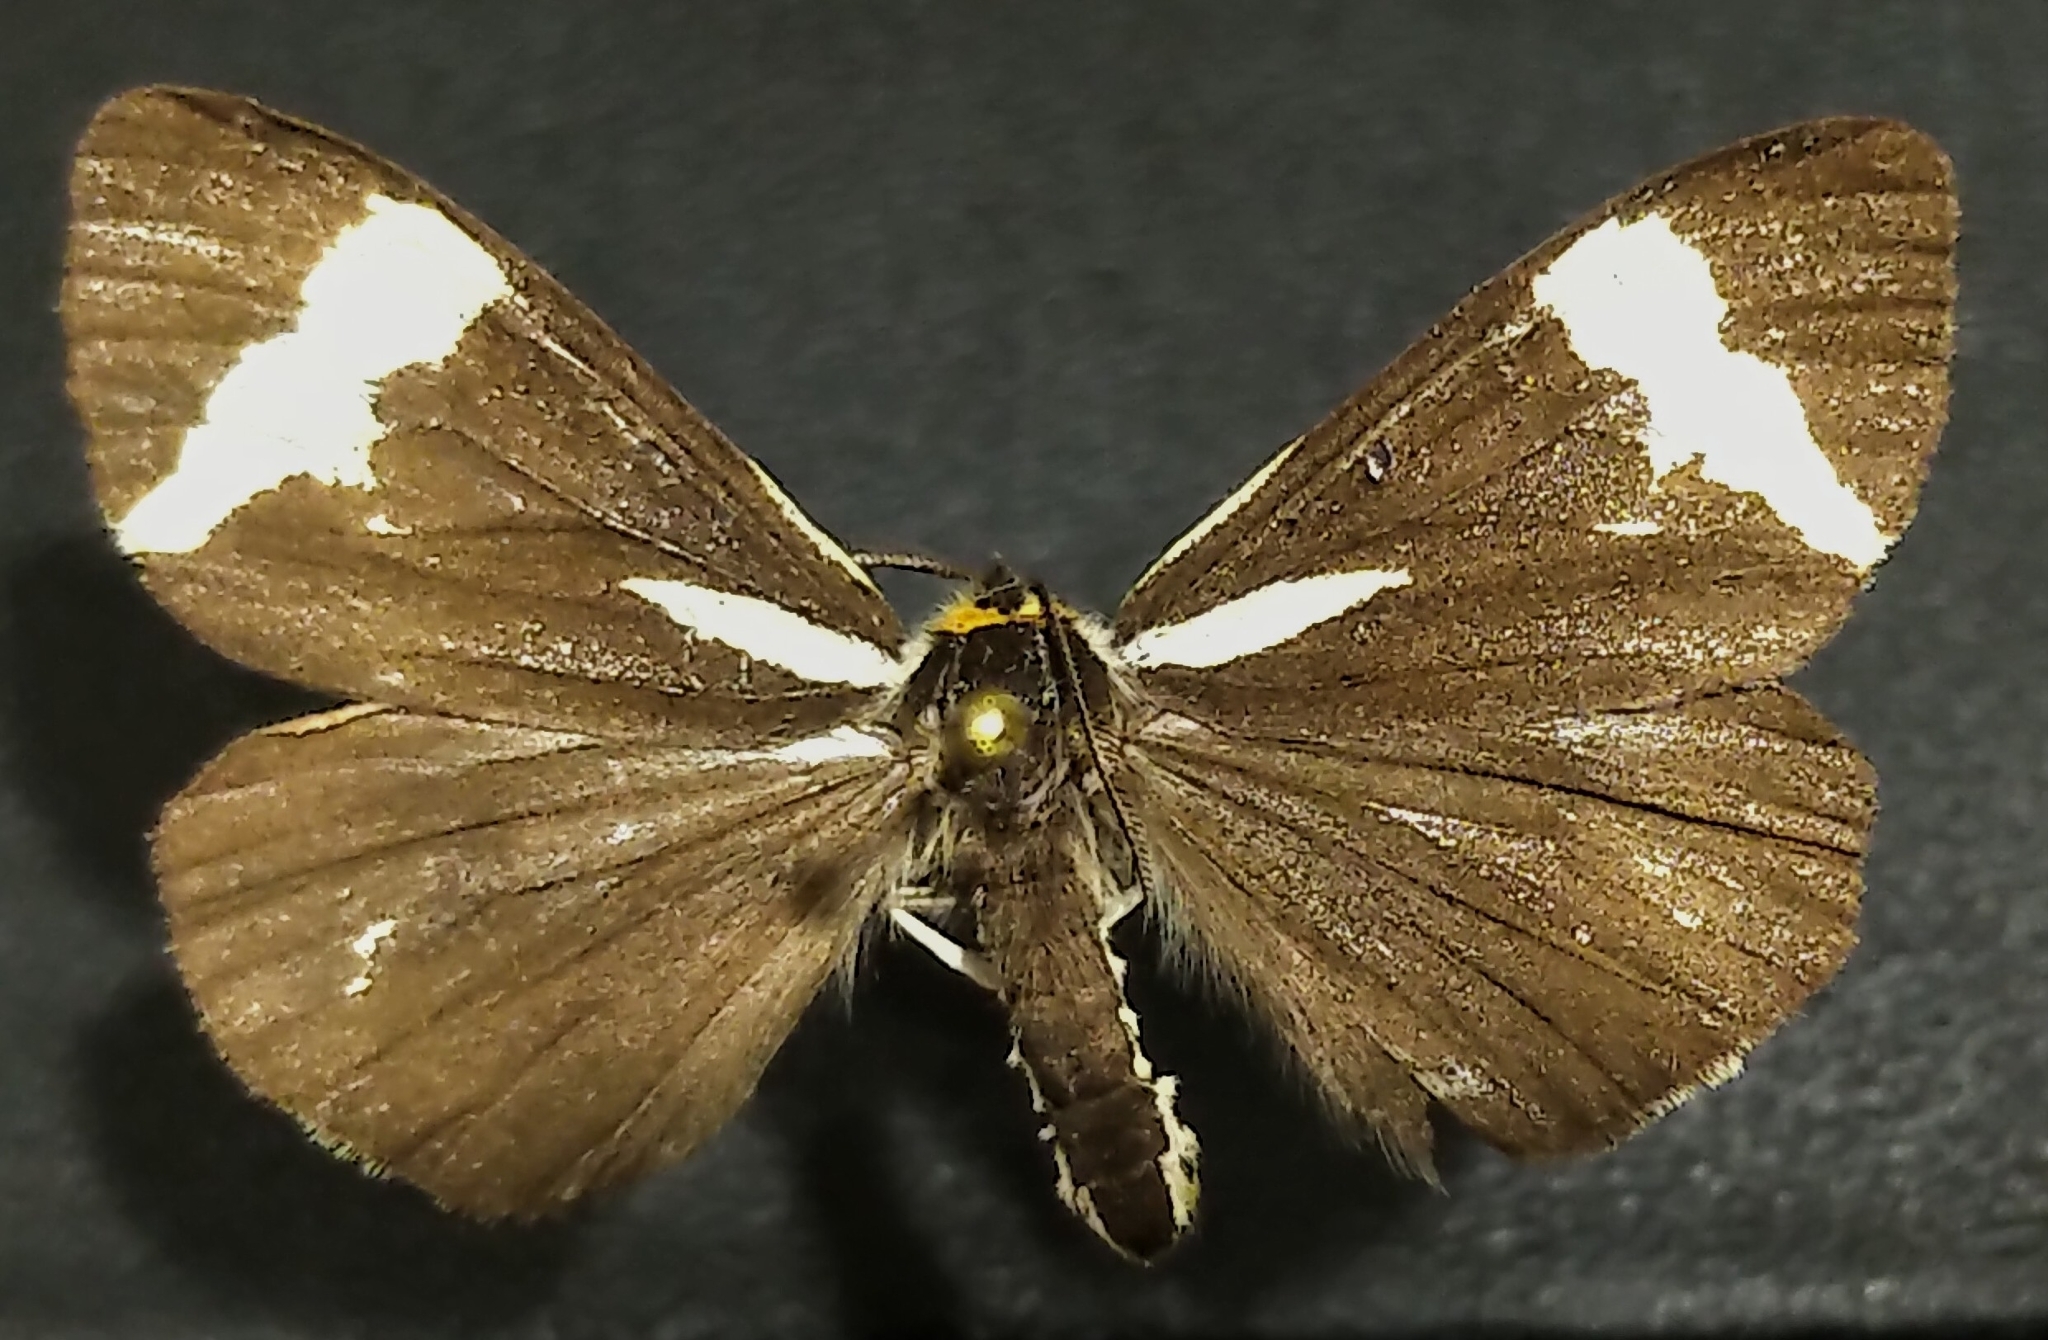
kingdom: Animalia
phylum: Arthropoda
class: Insecta
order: Lepidoptera
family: Erebidae
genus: Parasemia
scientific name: Parasemia plantaginis
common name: Wood tiger
